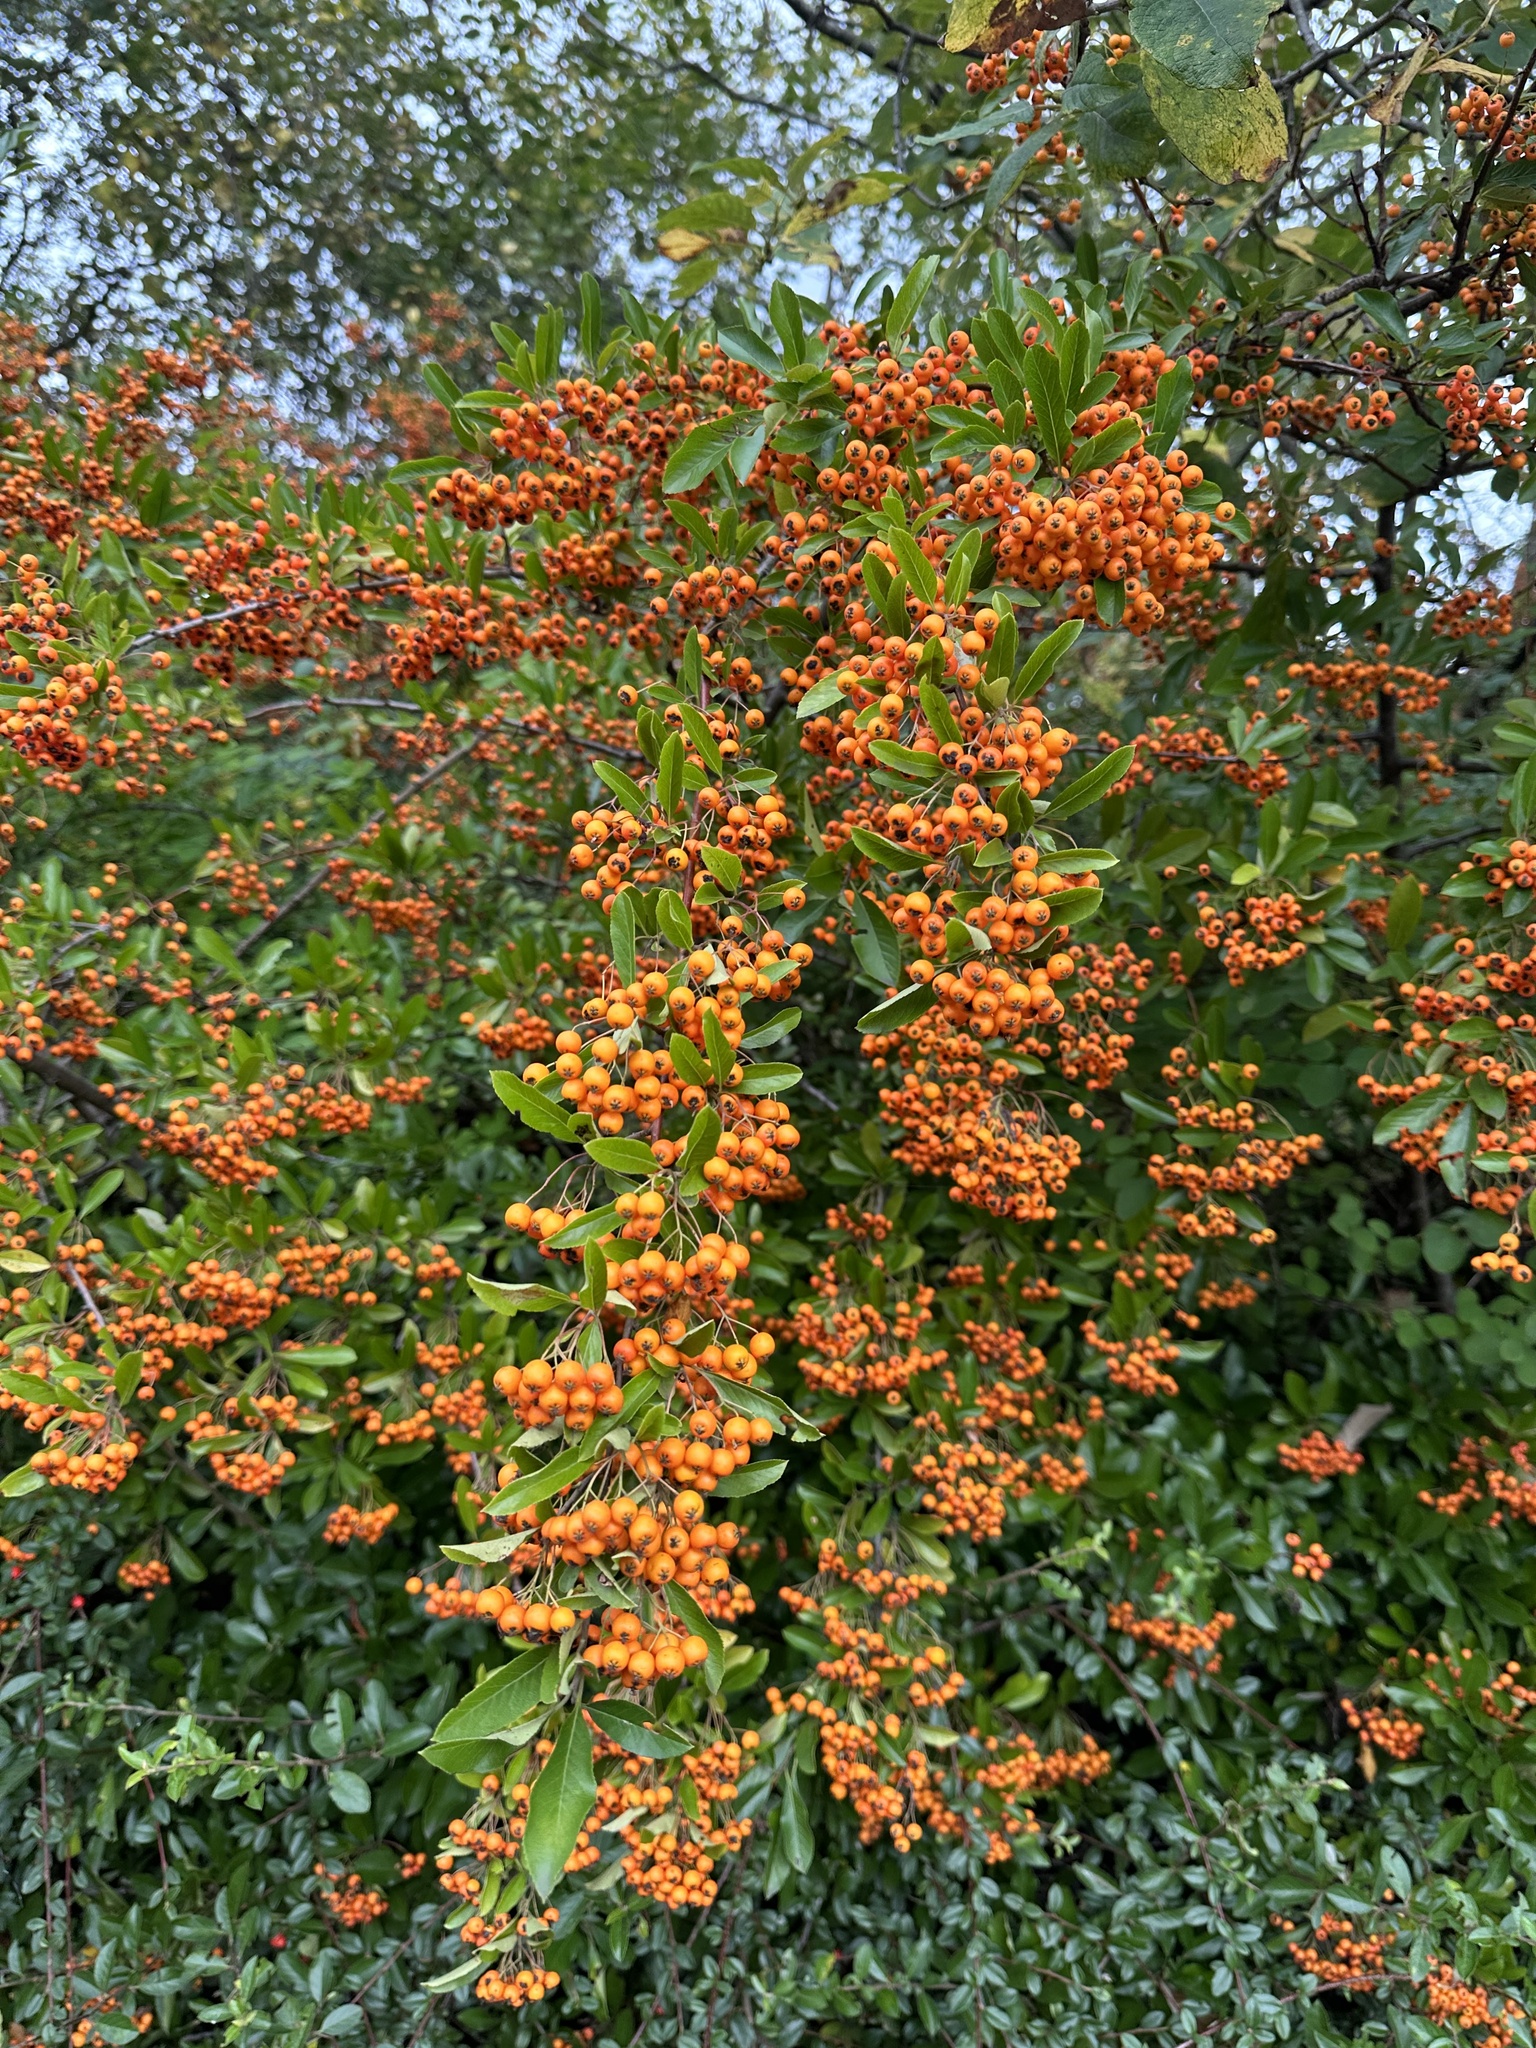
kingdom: Plantae
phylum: Tracheophyta
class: Magnoliopsida
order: Rosales
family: Rosaceae
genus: Pyracantha
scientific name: Pyracantha coccinea
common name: Firethorn
